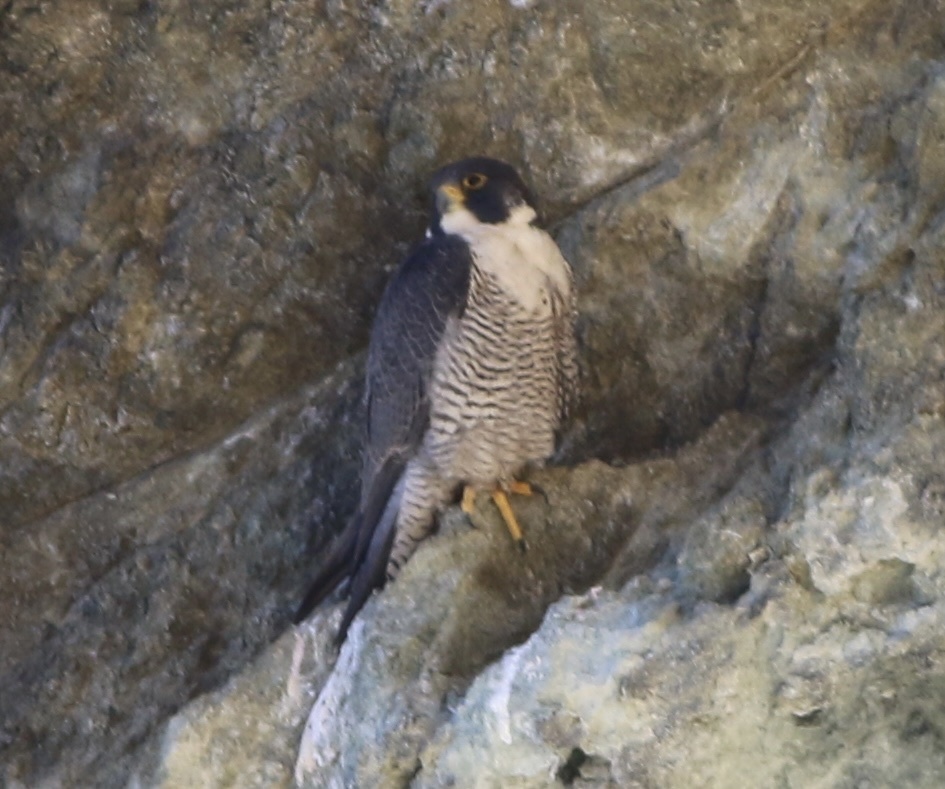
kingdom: Animalia
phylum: Chordata
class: Aves
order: Falconiformes
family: Falconidae
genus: Falco
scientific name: Falco peregrinus
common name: Peregrine falcon
